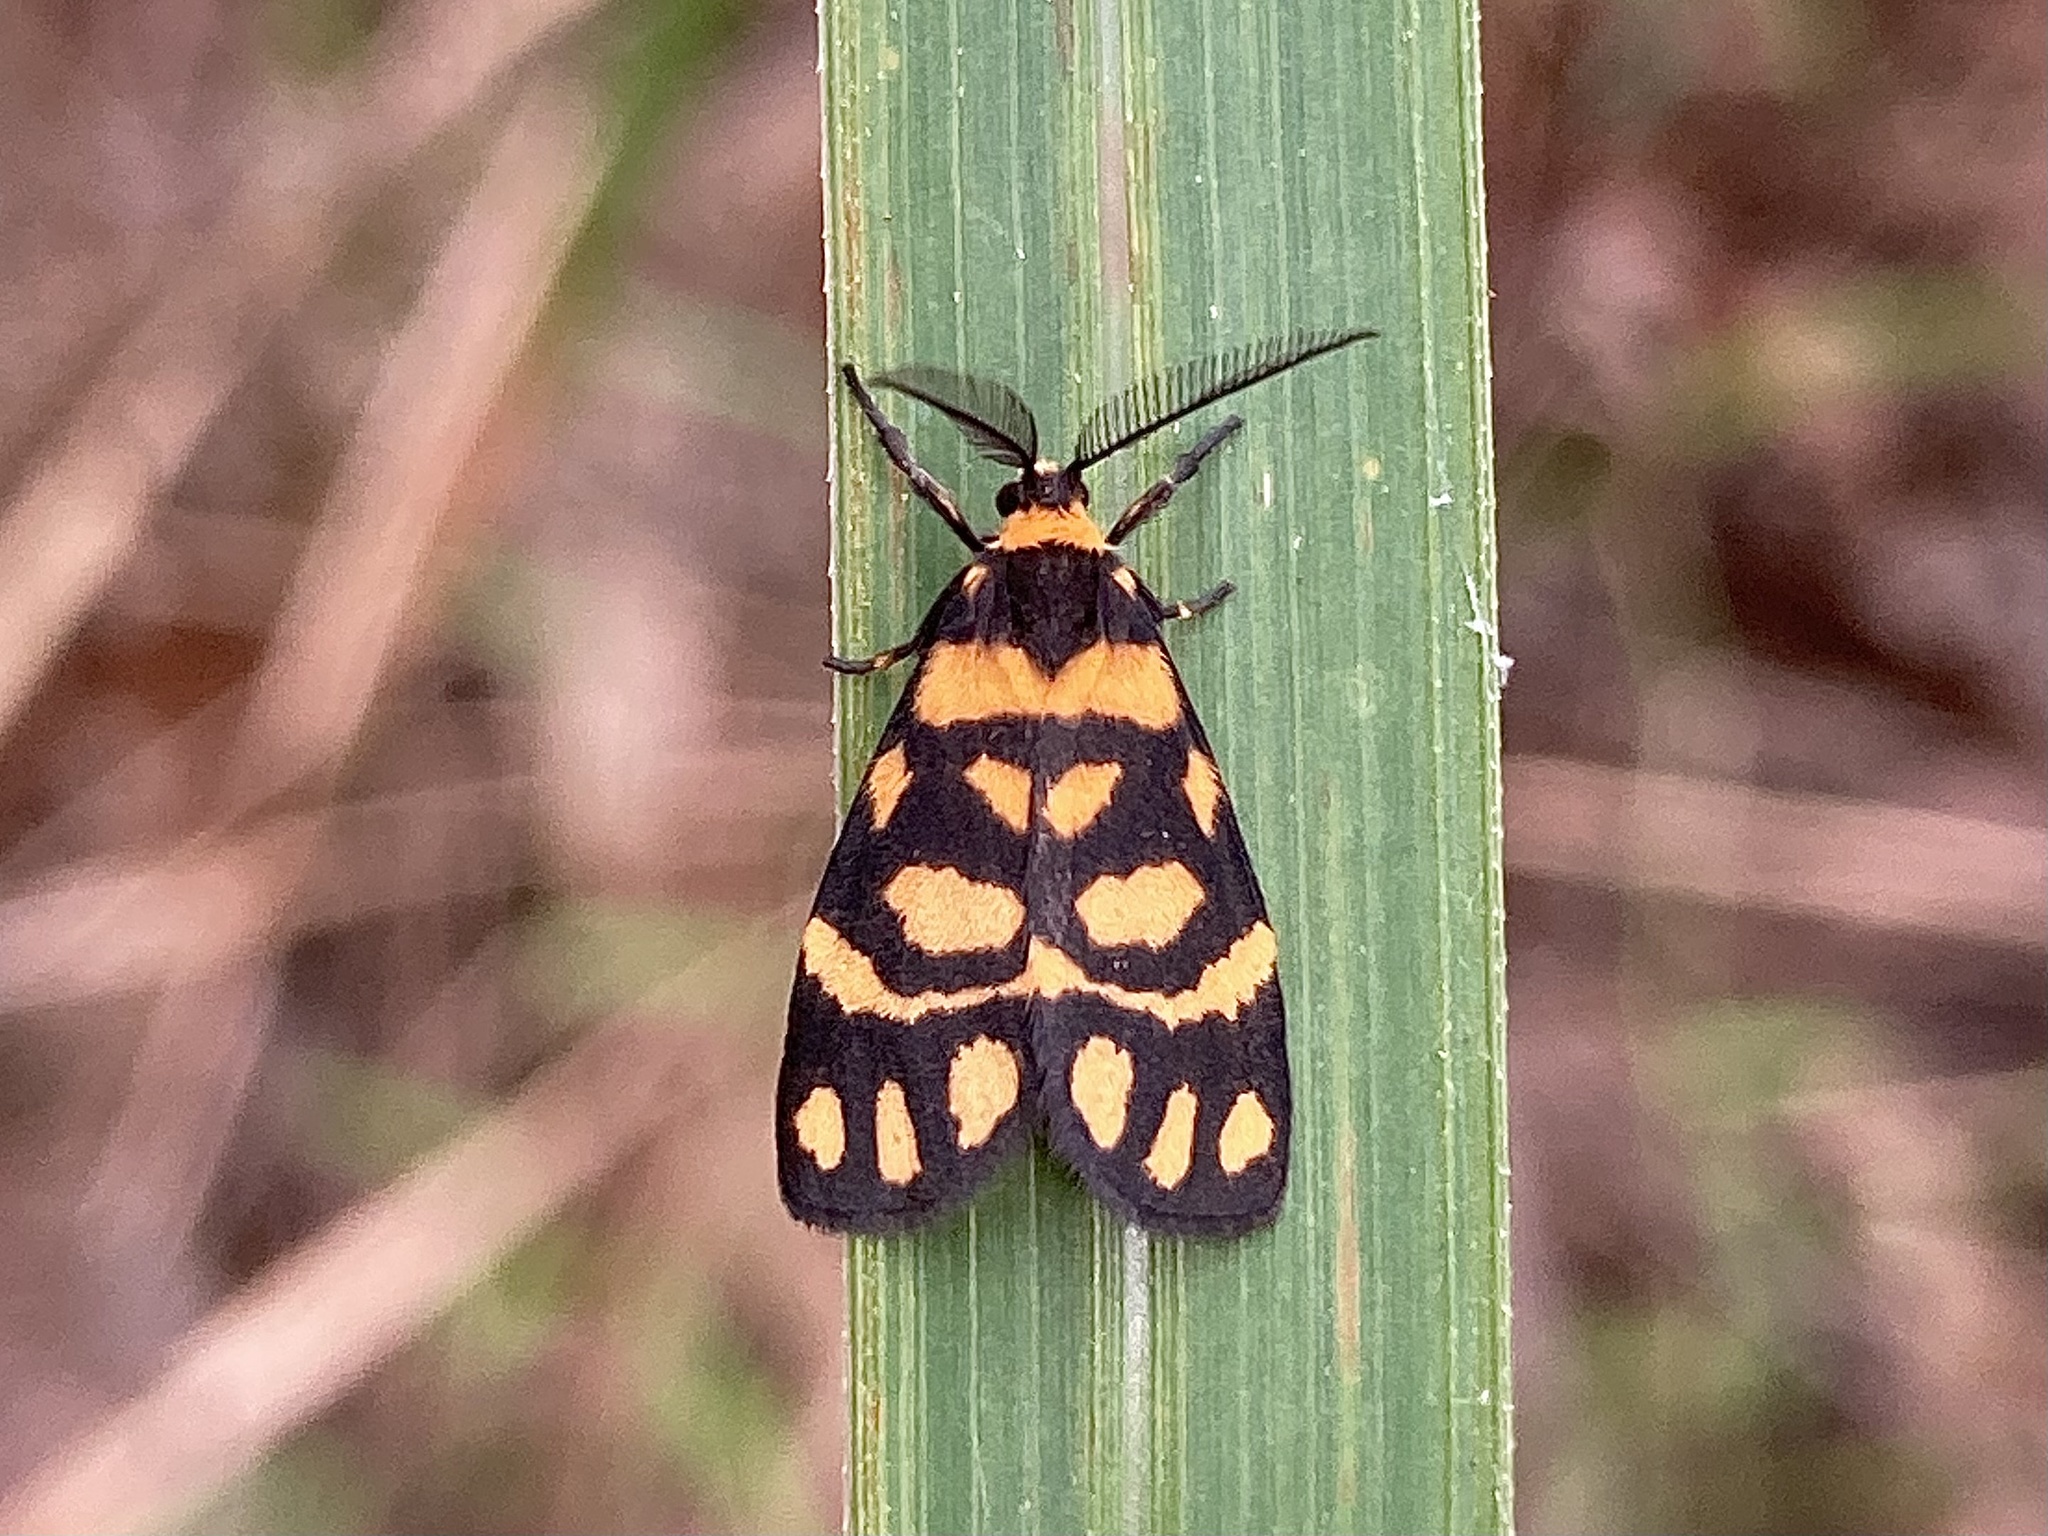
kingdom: Animalia
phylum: Arthropoda
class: Insecta
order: Lepidoptera
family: Erebidae
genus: Asura
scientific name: Asura lydia
